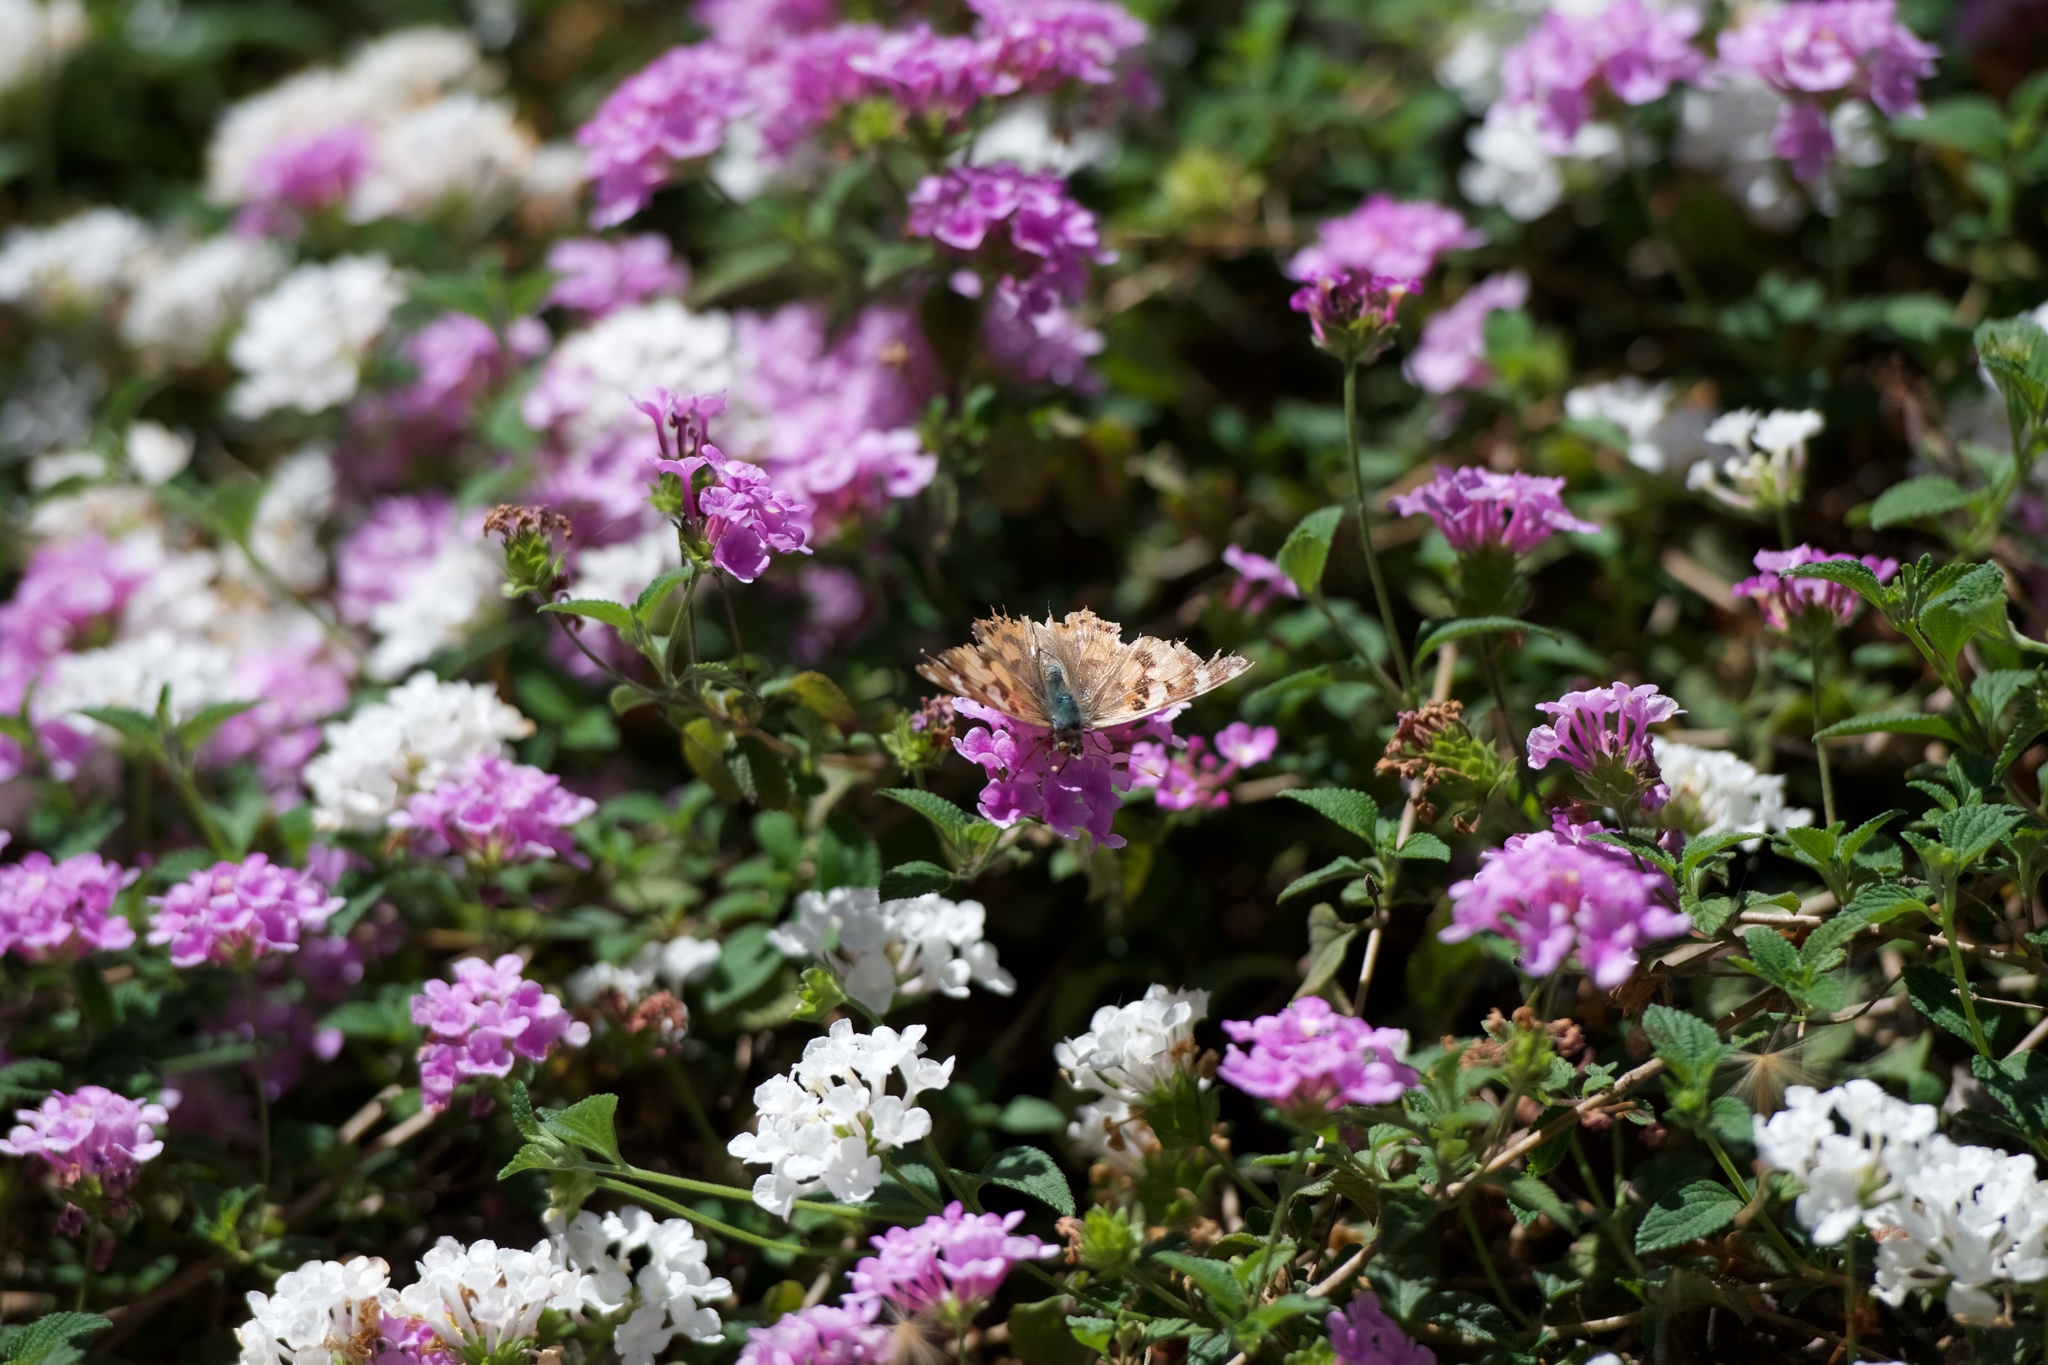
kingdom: Animalia
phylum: Arthropoda
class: Insecta
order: Lepidoptera
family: Nymphalidae
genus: Vanessa
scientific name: Vanessa cardui
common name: Painted lady
